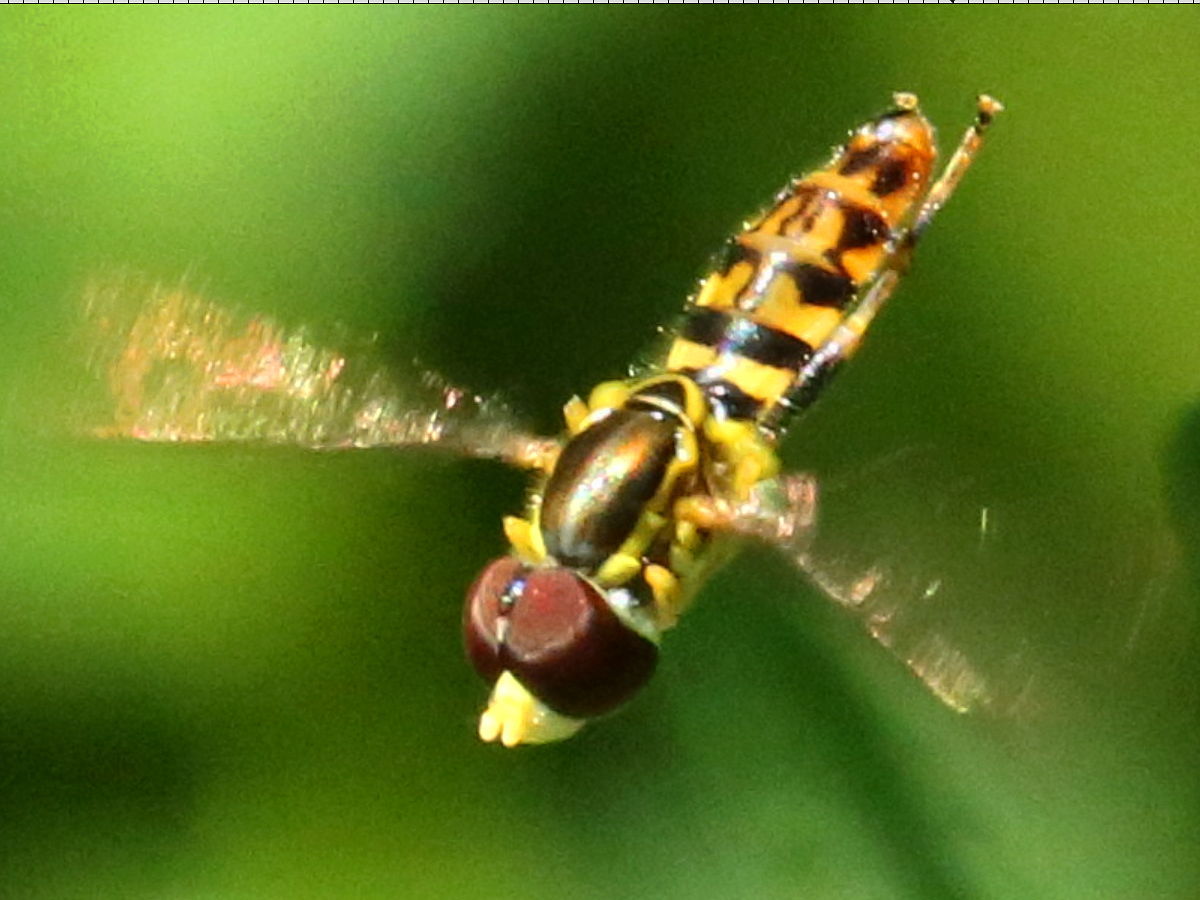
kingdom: Animalia
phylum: Arthropoda
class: Insecta
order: Diptera
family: Syrphidae
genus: Toxomerus
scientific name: Toxomerus geminatus
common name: Eastern calligrapher
